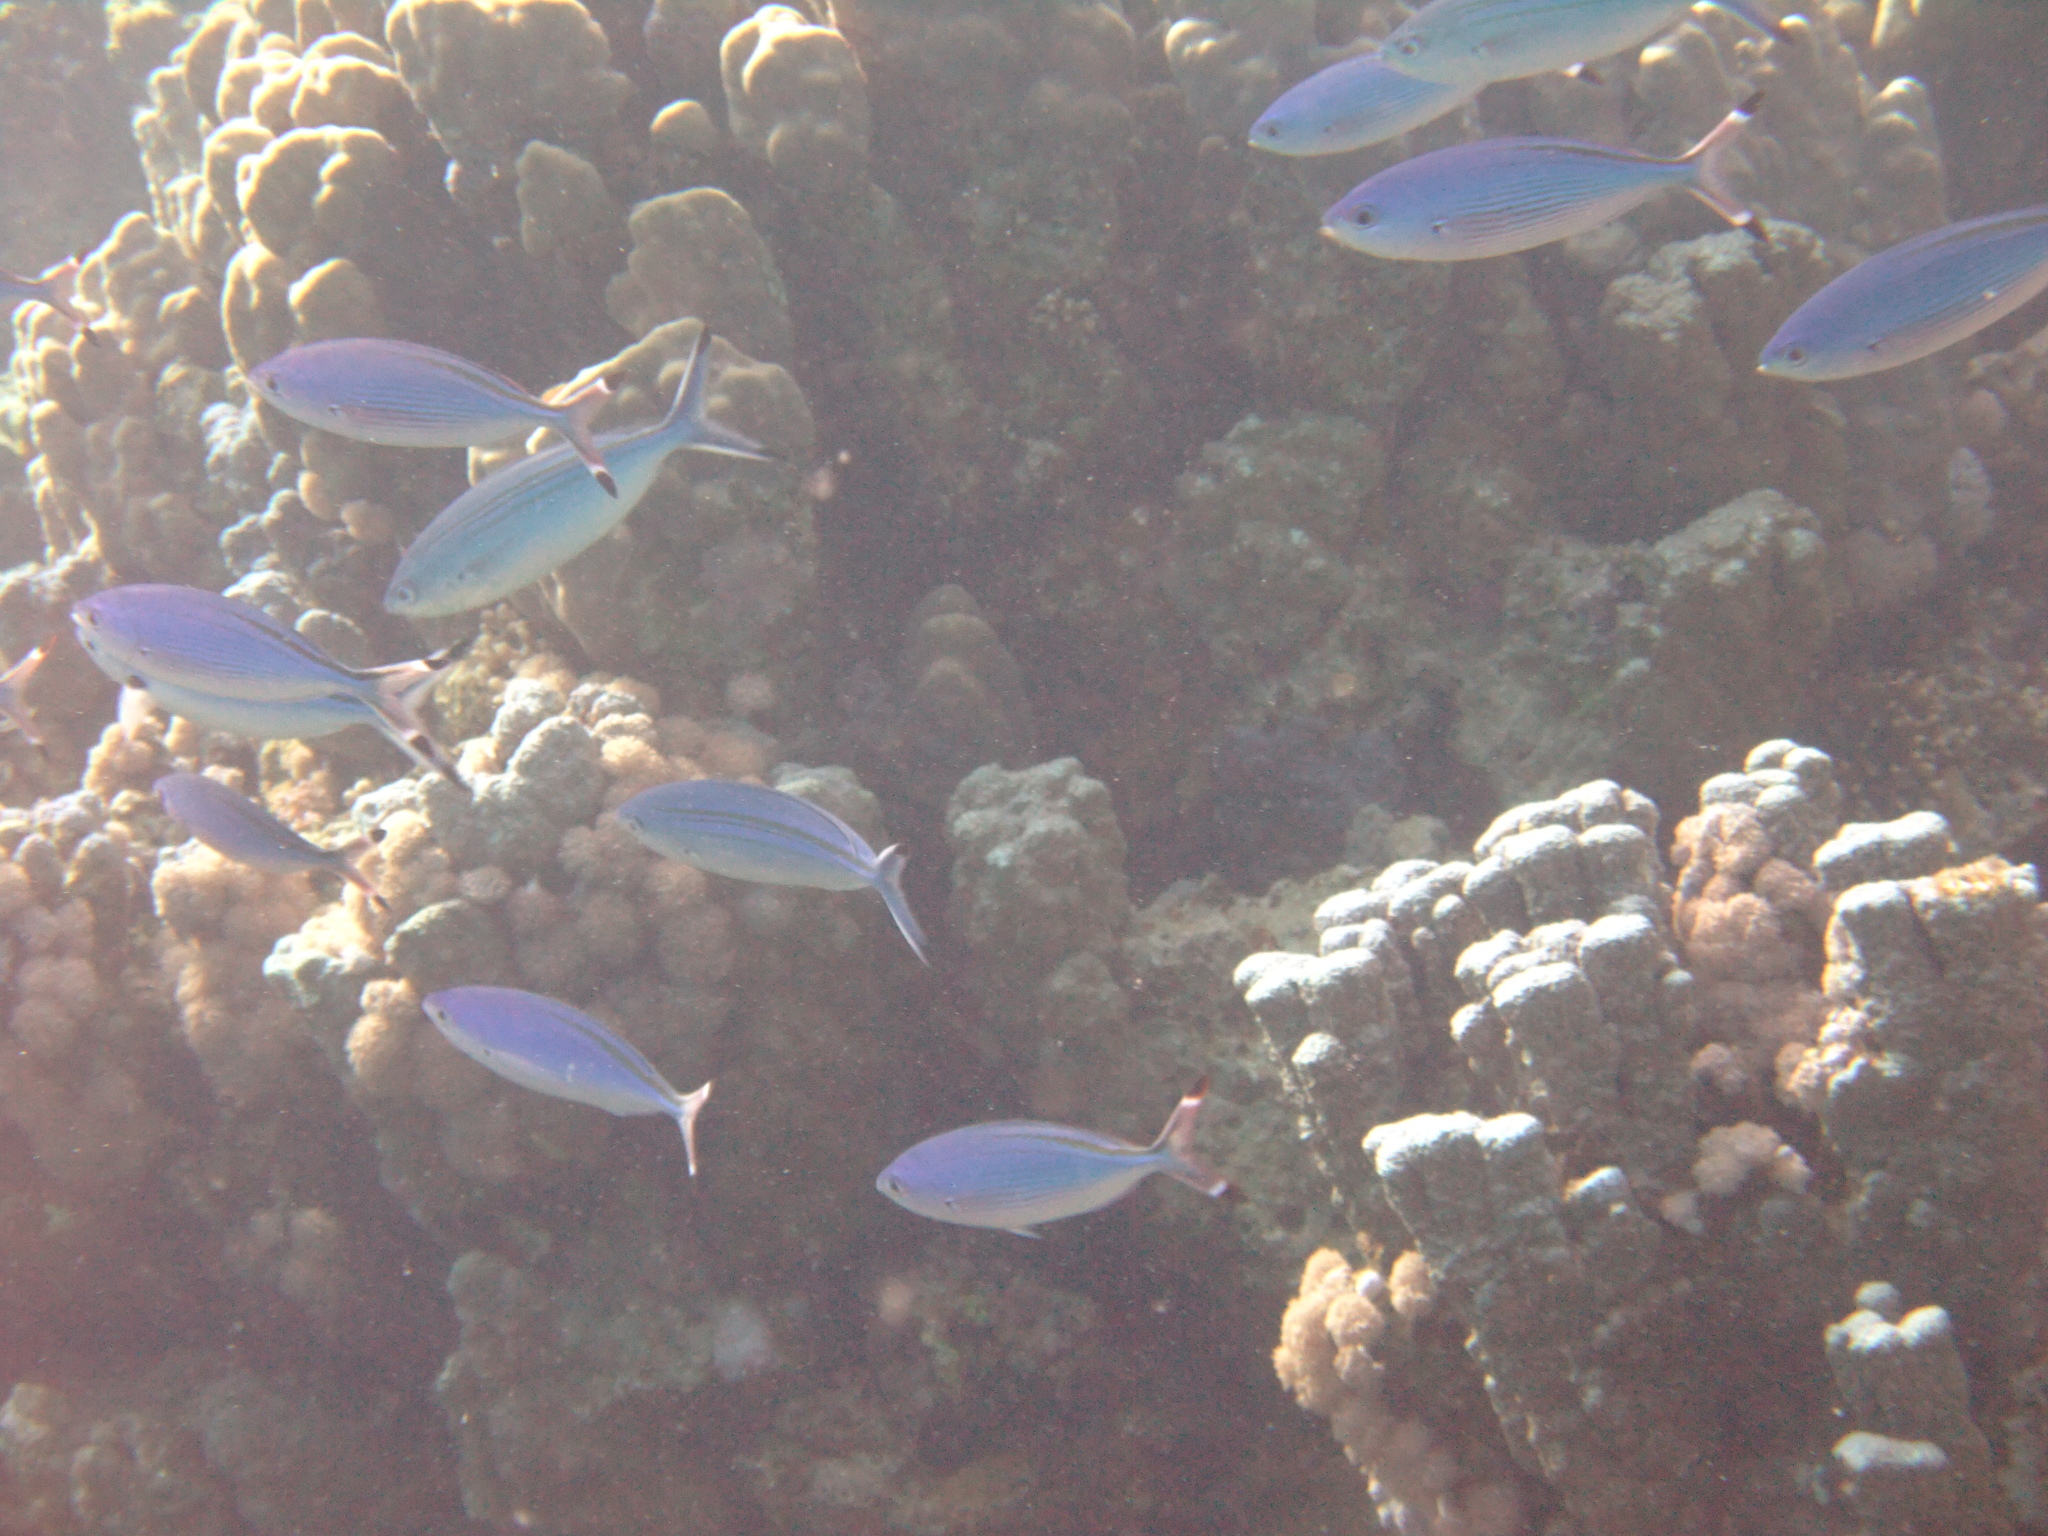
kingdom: Animalia
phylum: Chordata
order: Perciformes
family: Caesionidae
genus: Caesio
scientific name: Caesio suevica
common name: Suez fusilier
